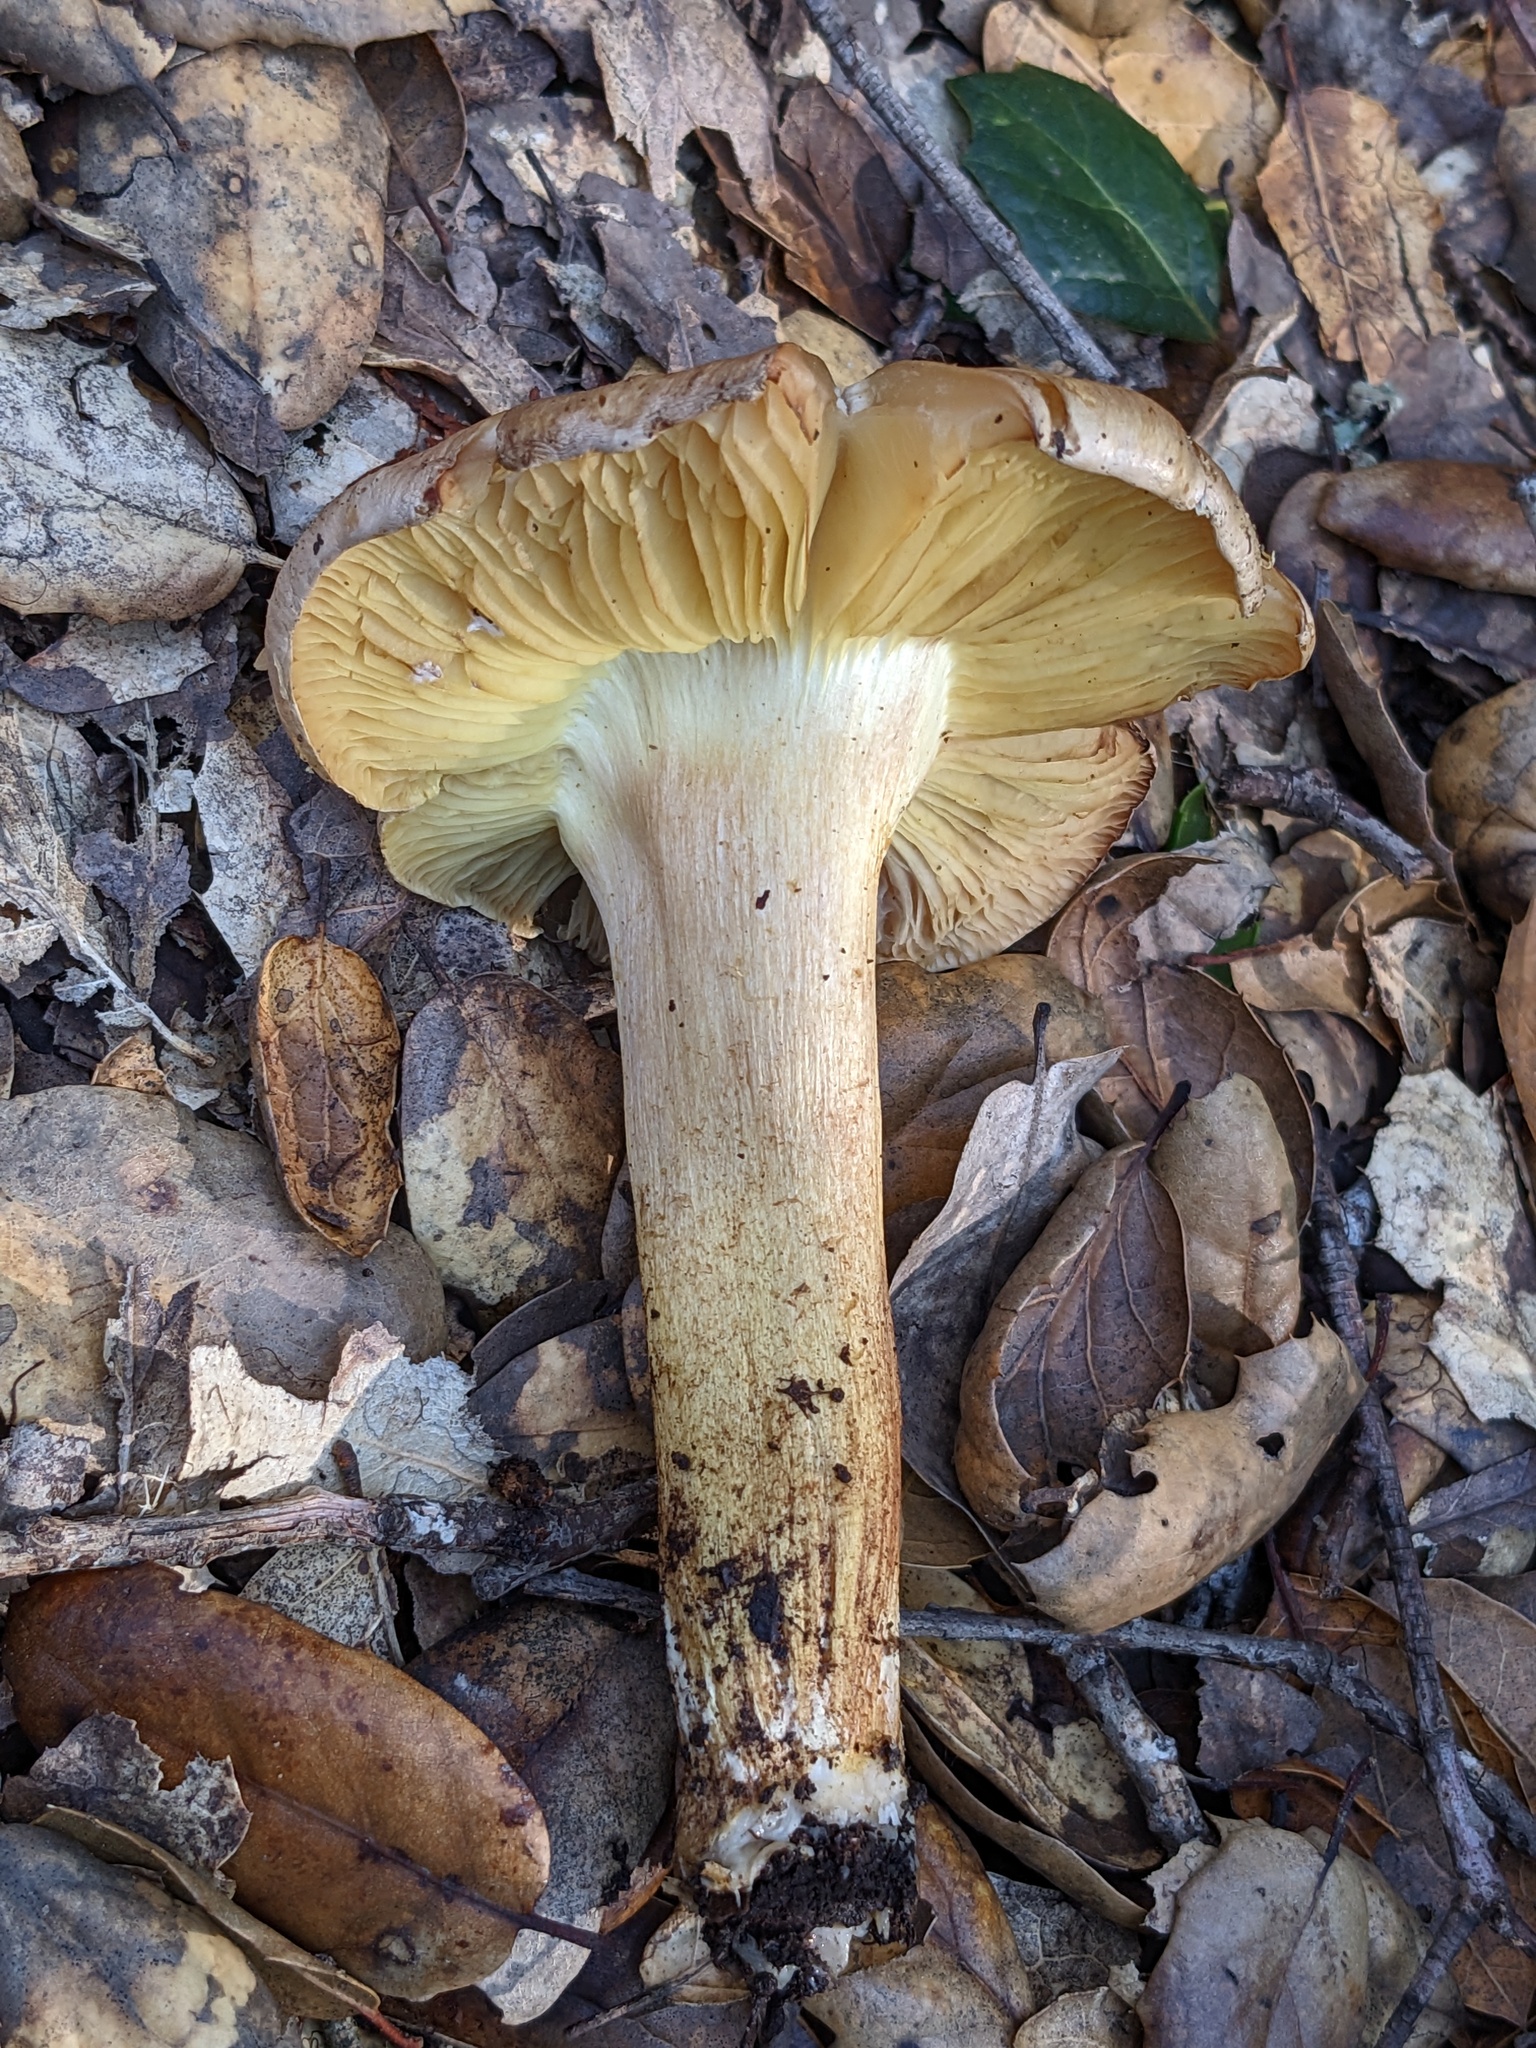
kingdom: Fungi
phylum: Basidiomycota
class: Agaricomycetes
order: Agaricales
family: Tricholomataceae
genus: Melanoleuca
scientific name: Melanoleuca yatesii
